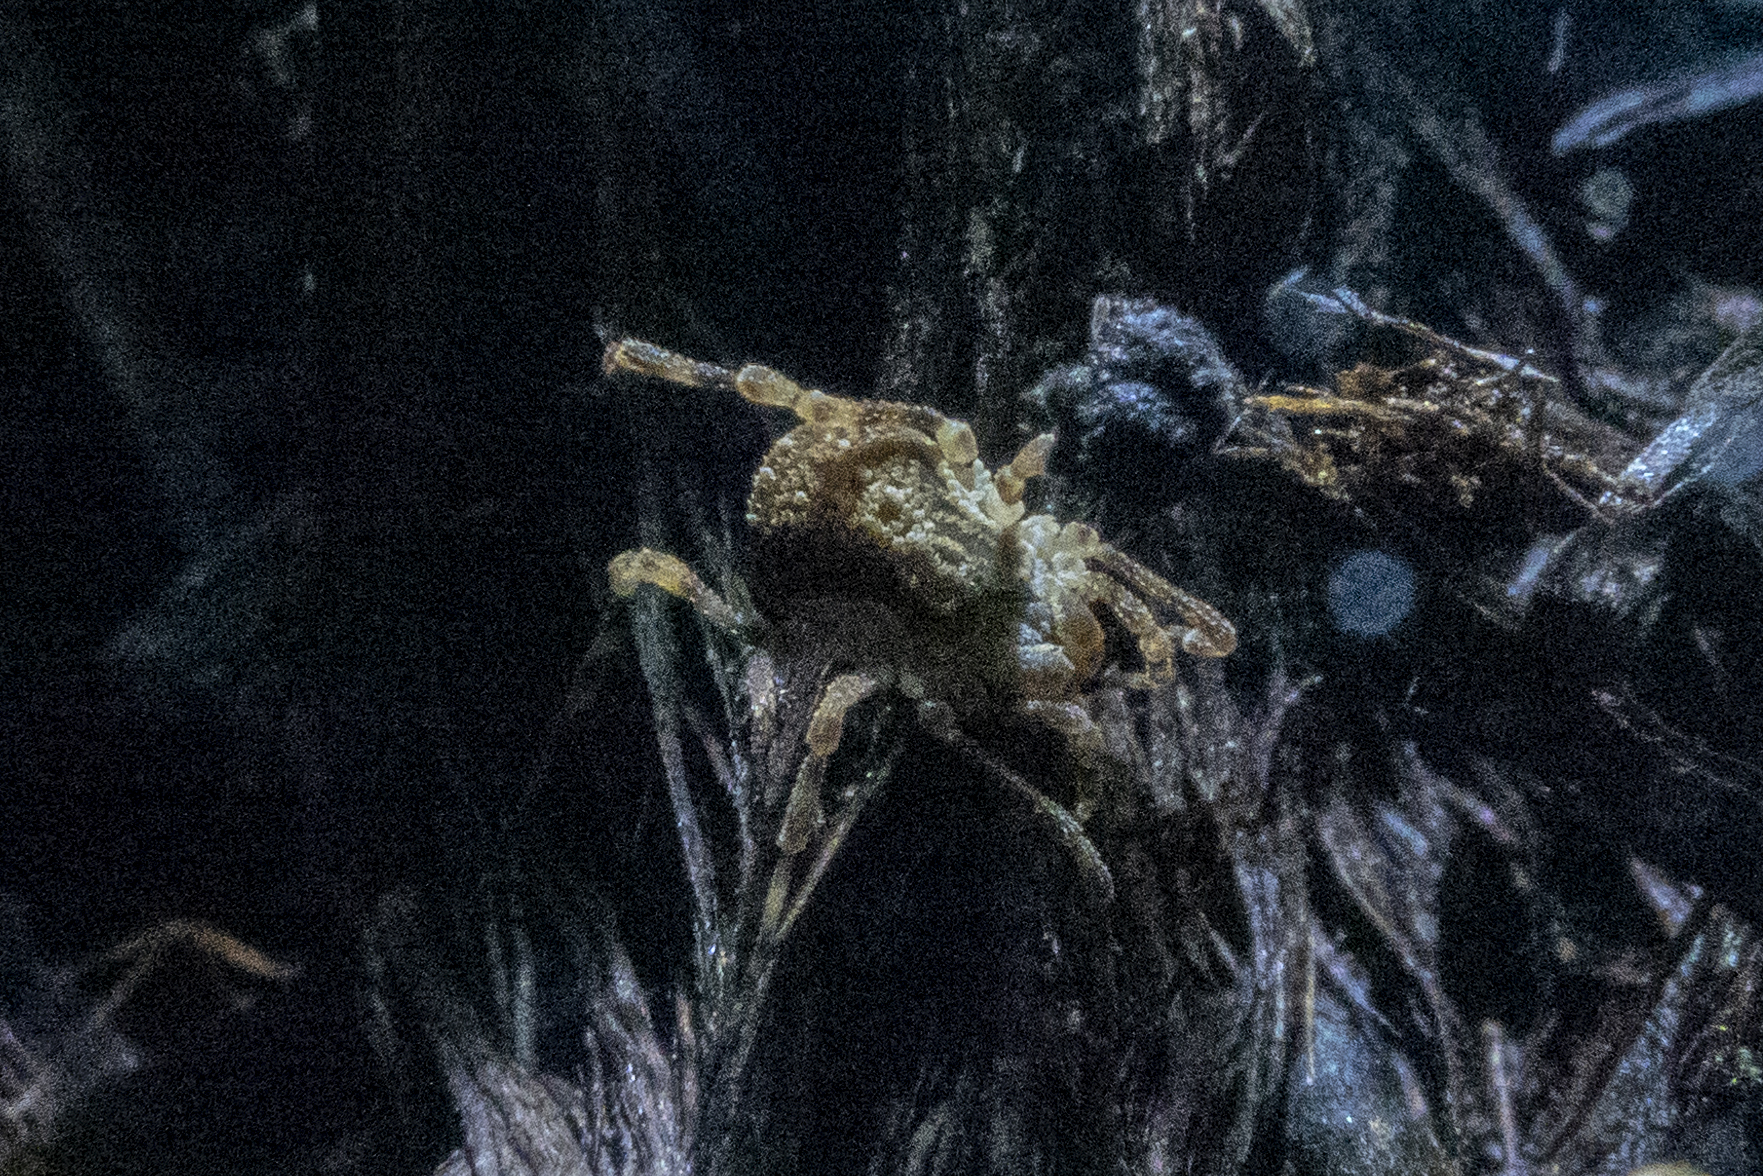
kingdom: Animalia
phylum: Arthropoda
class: Arachnida
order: Opiliones
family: Triaenonychidae
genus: Pristobunus
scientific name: Pristobunus acentrus
